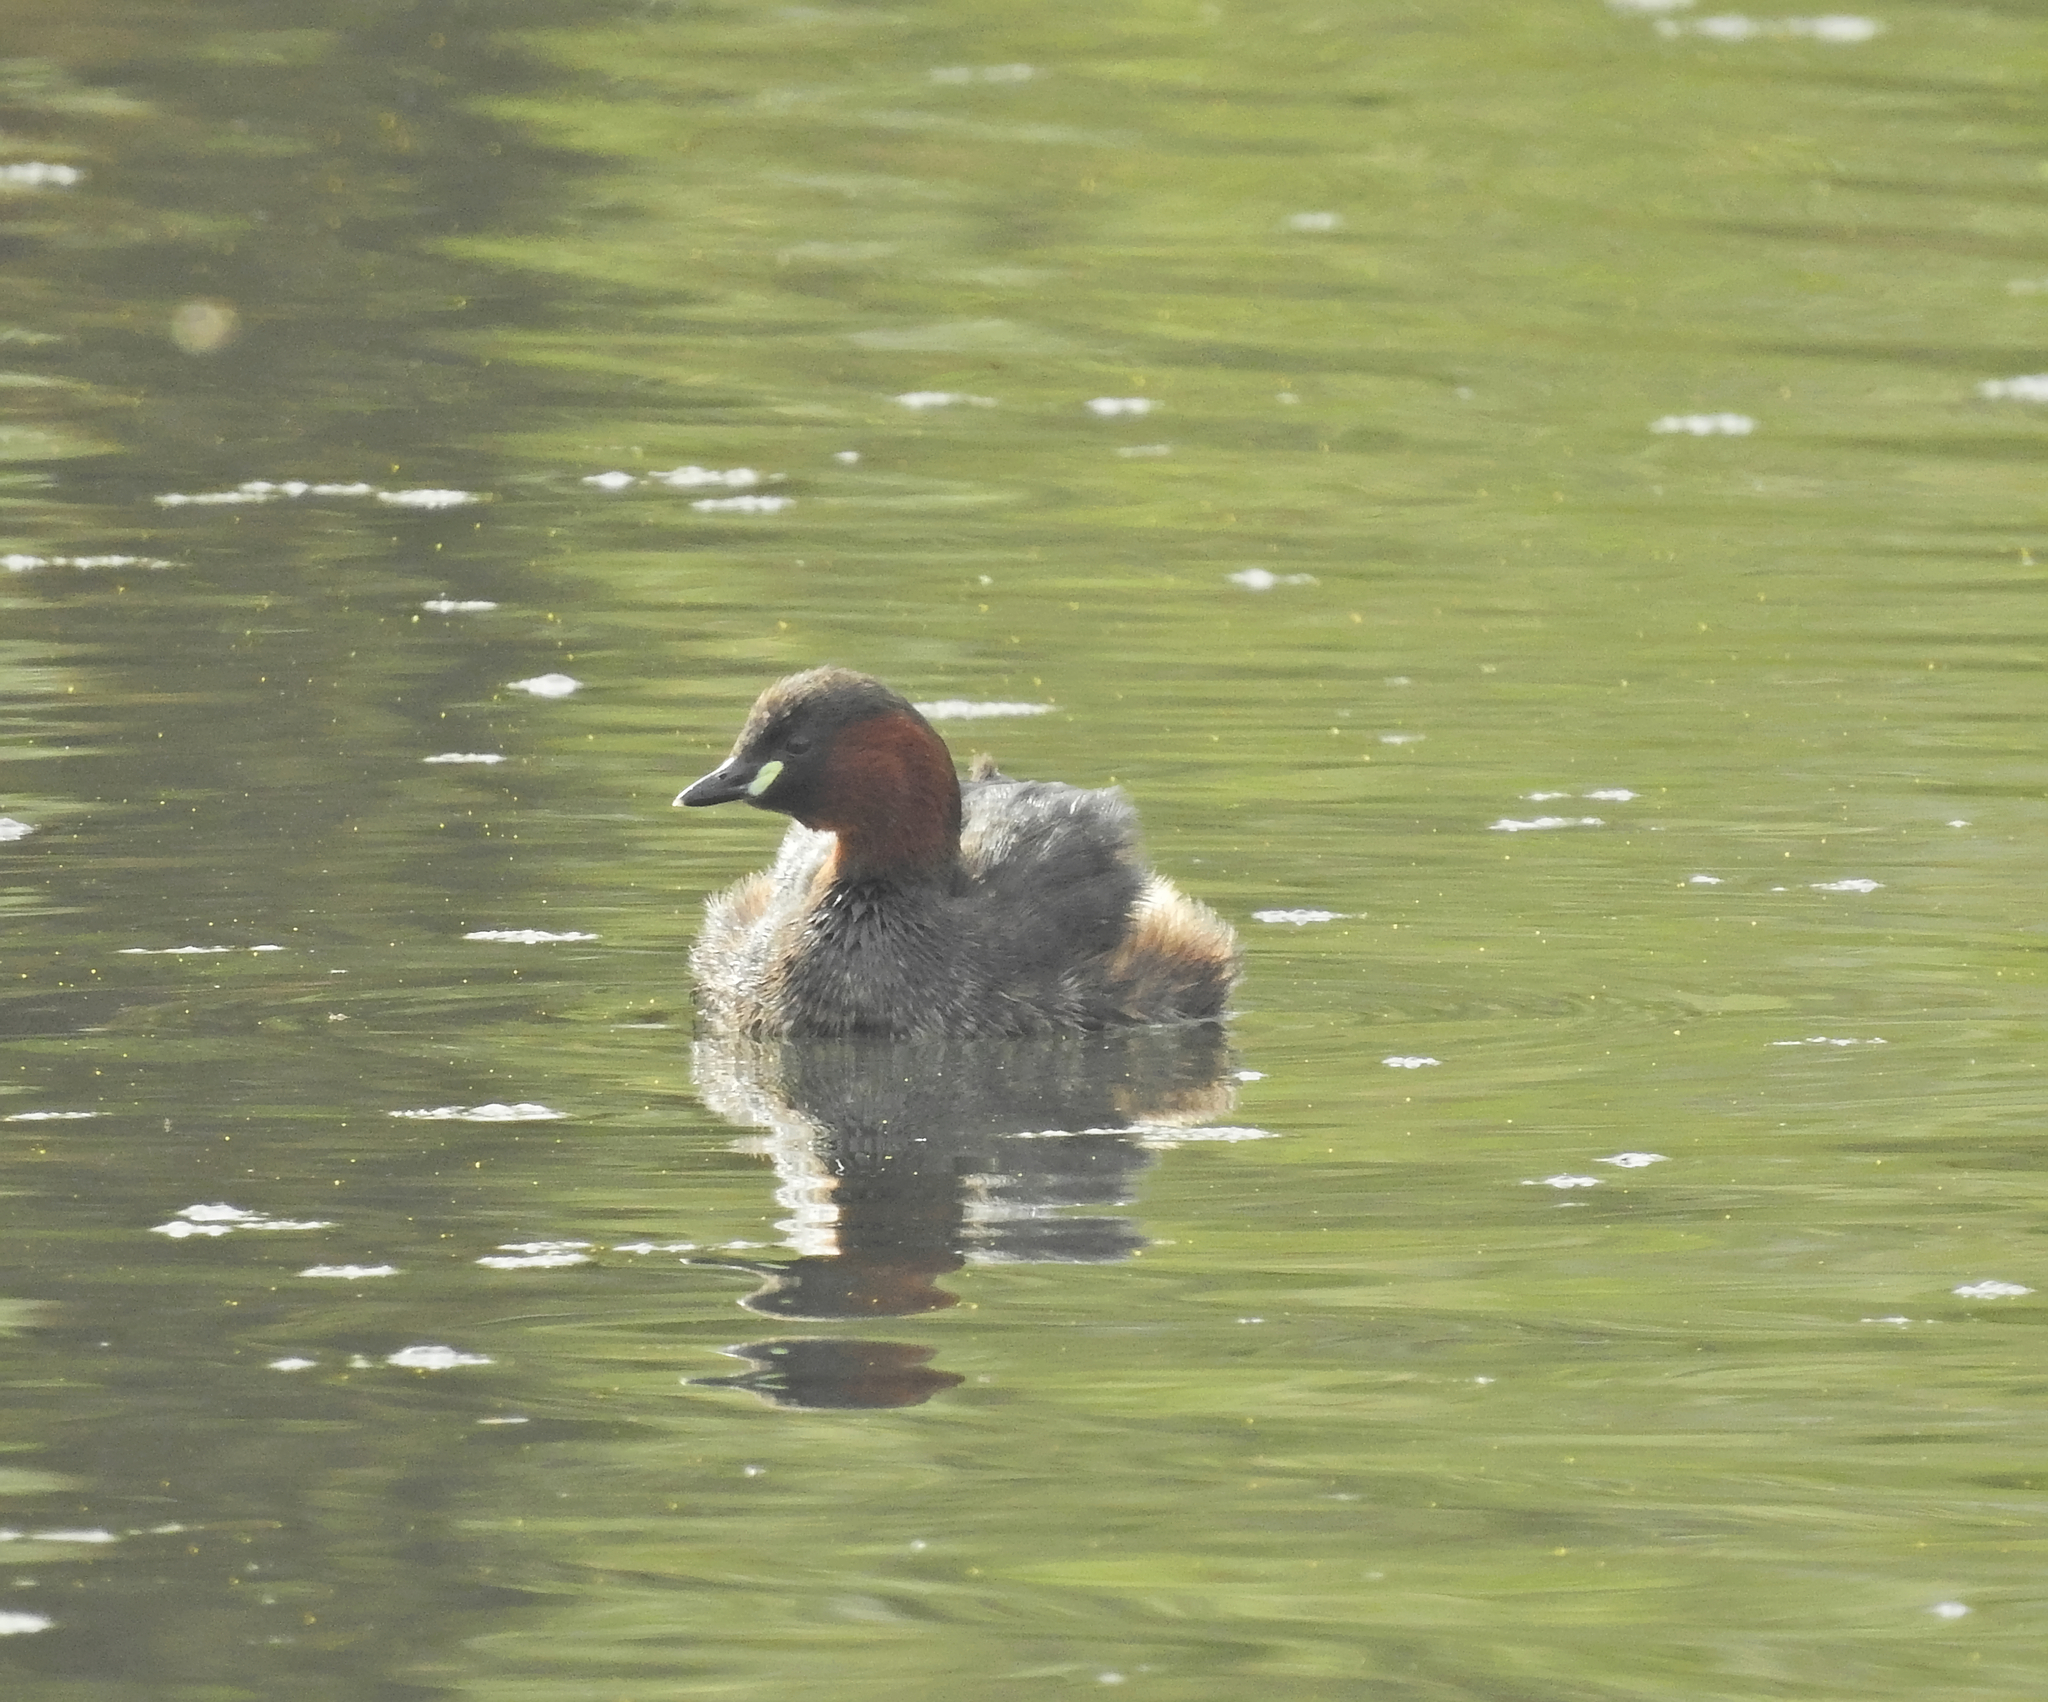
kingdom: Animalia
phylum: Chordata
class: Aves
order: Podicipediformes
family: Podicipedidae
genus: Tachybaptus
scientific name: Tachybaptus ruficollis
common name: Little grebe
